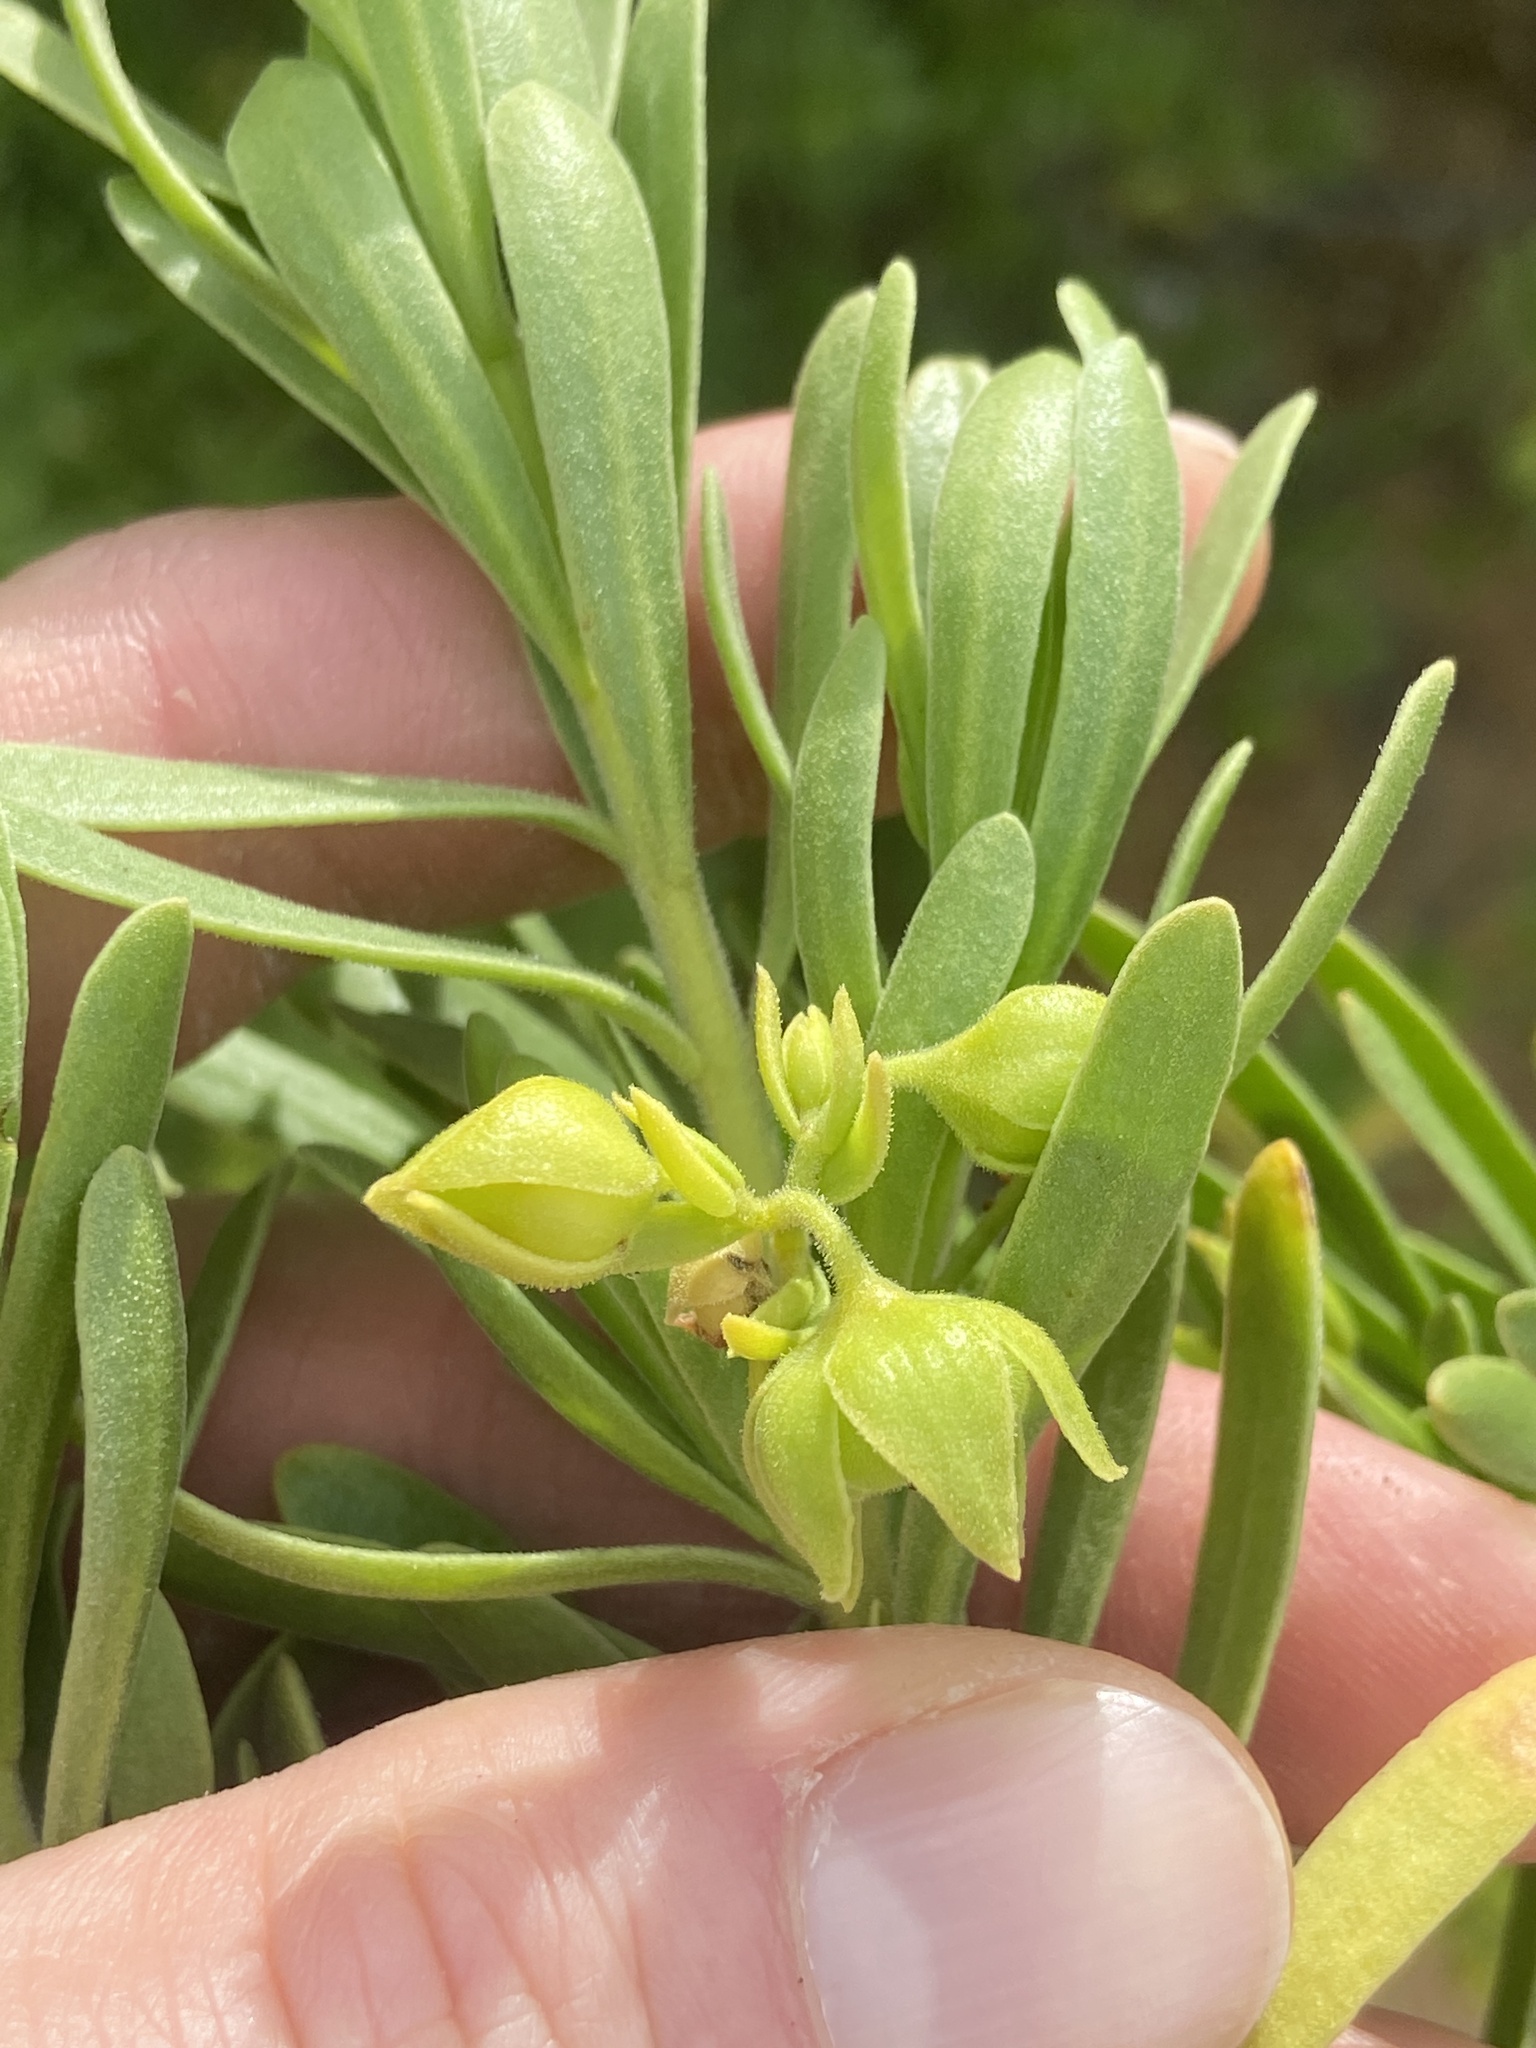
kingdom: Plantae
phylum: Tracheophyta
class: Magnoliopsida
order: Fabales
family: Surianaceae
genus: Suriana
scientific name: Suriana maritima
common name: Bay-cedar
